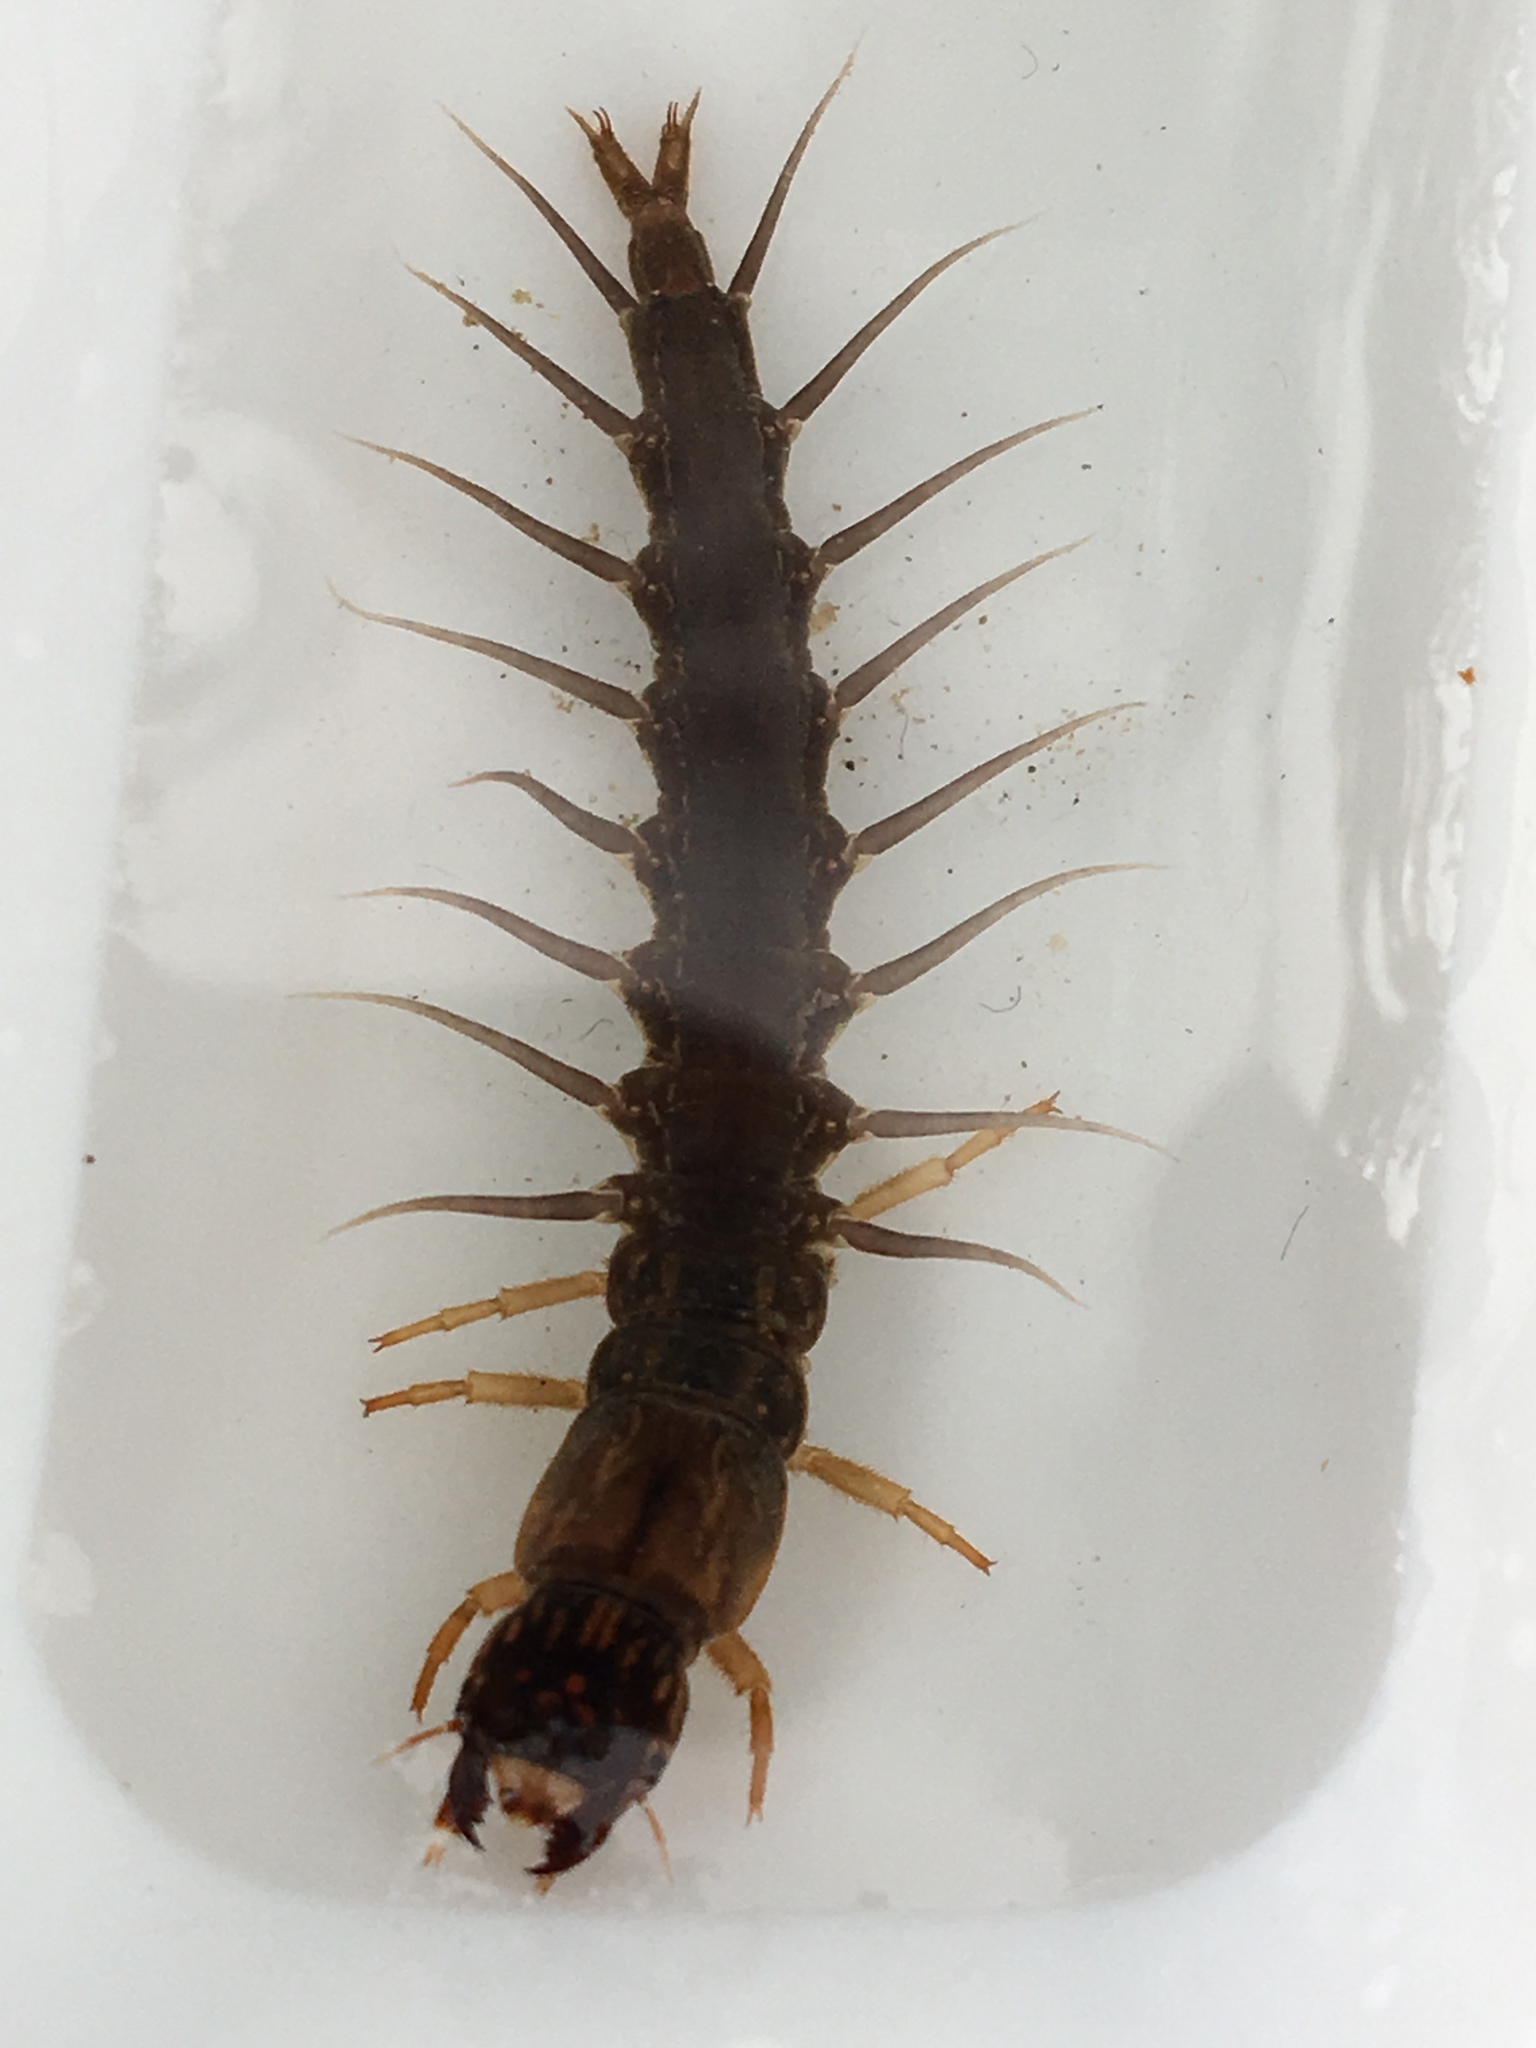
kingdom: Animalia
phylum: Arthropoda
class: Insecta
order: Megaloptera
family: Corydalidae
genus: Neohermes
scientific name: Neohermes filicornis
